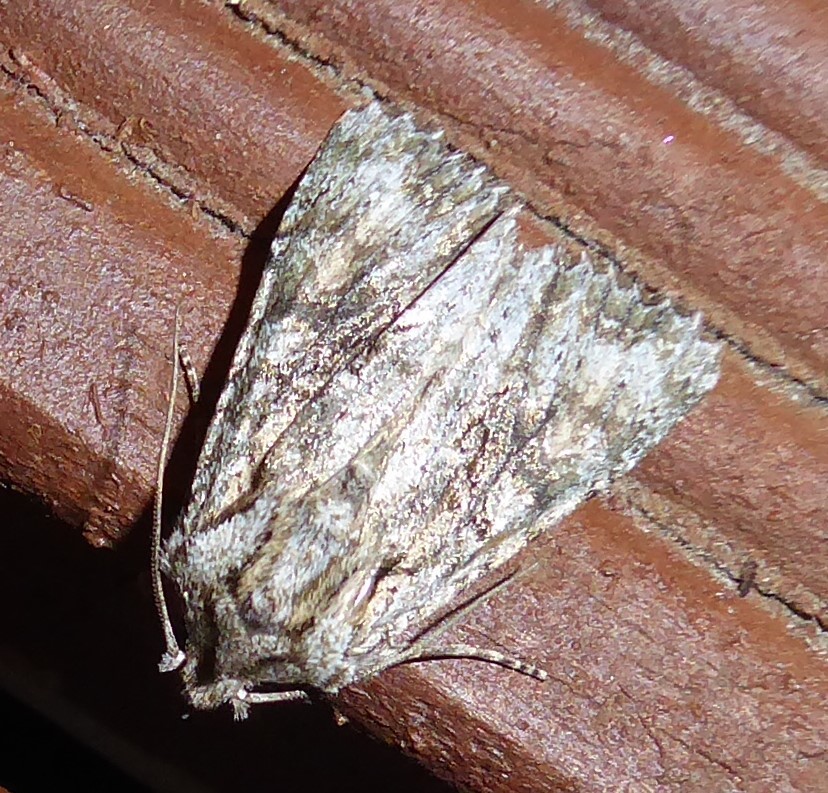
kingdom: Animalia
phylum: Arthropoda
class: Insecta
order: Lepidoptera
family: Noctuidae
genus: Ichneutica
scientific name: Ichneutica mutans
